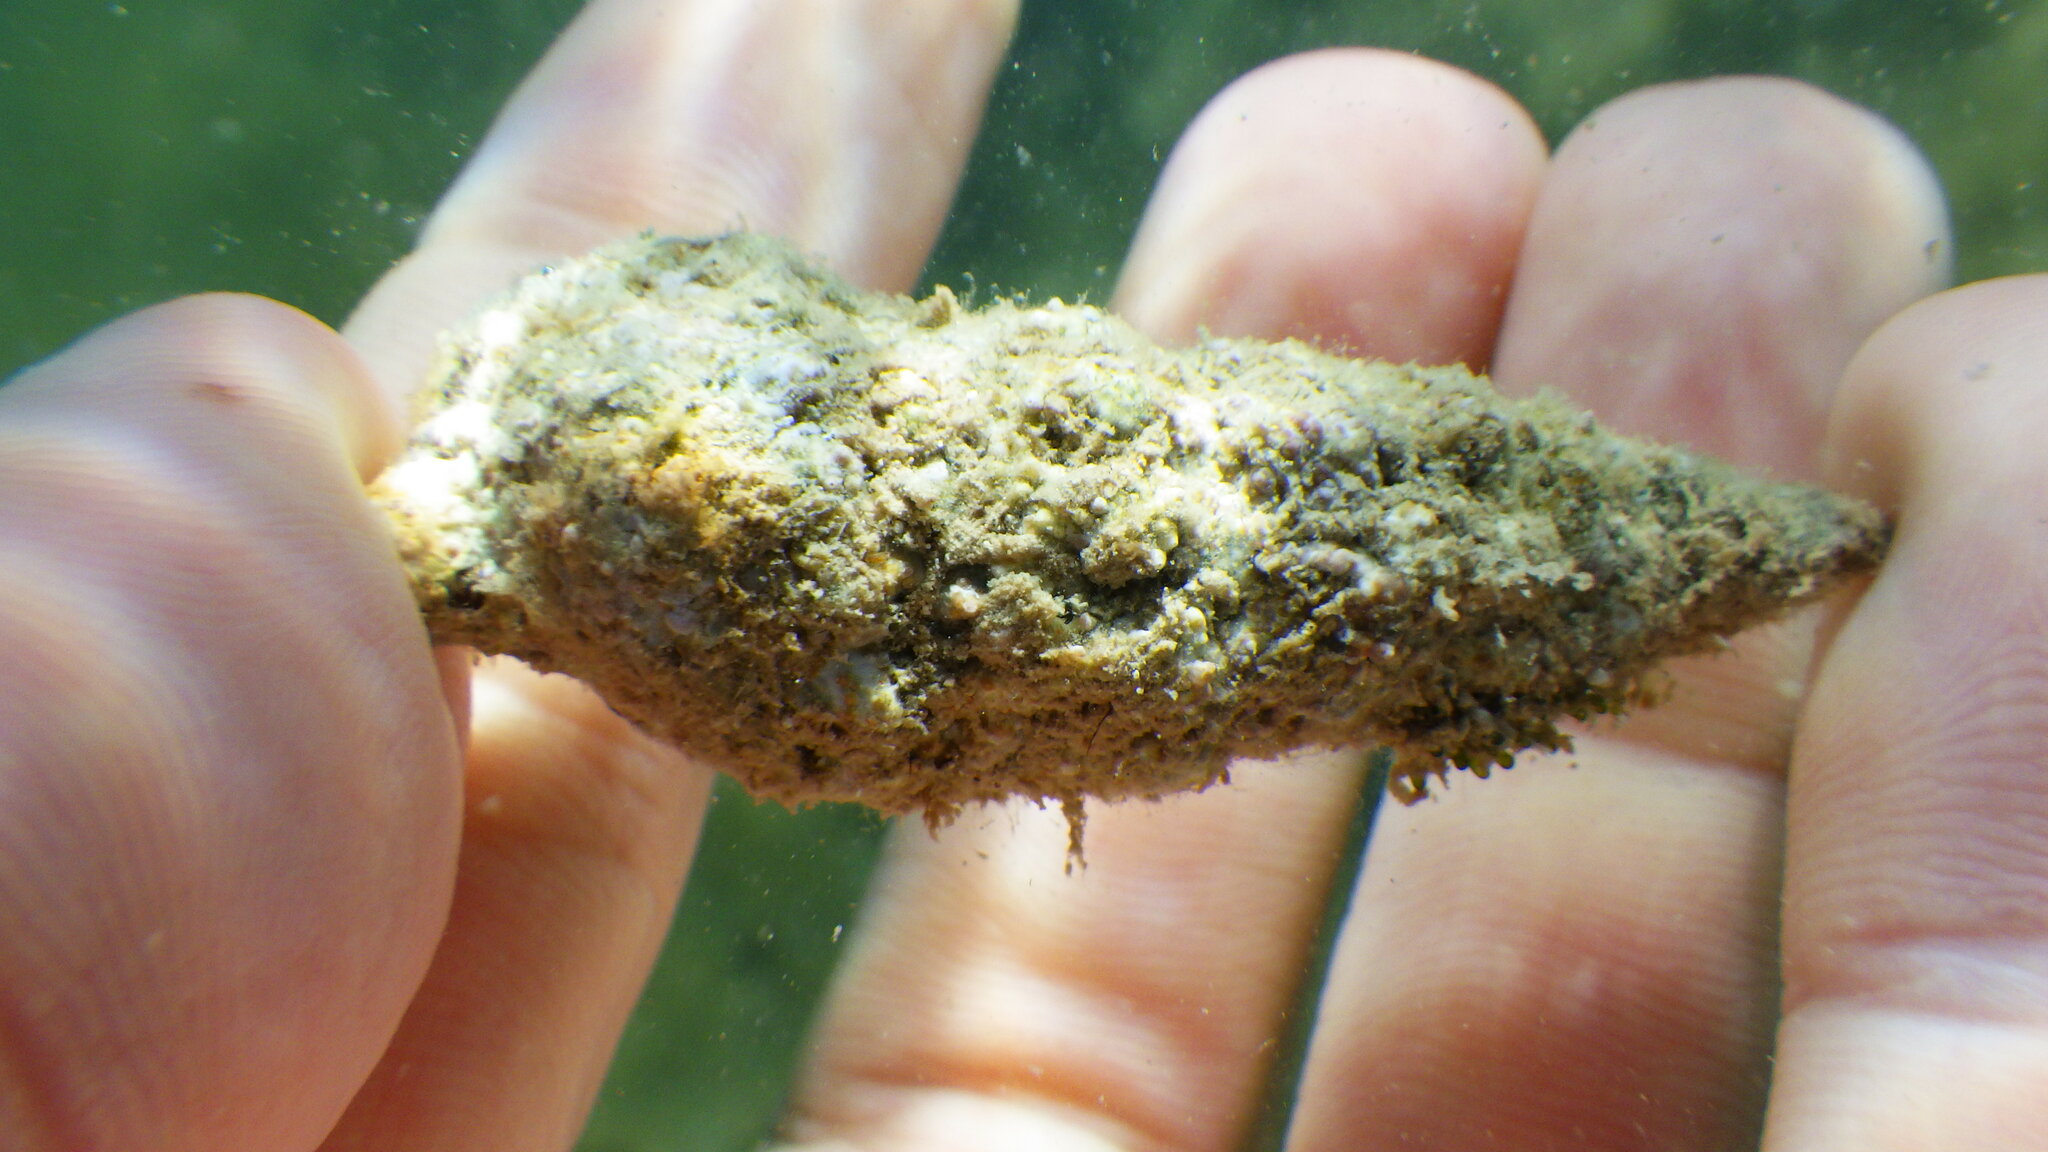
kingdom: Animalia
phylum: Mollusca
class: Gastropoda
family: Cerithiidae
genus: Cerithium
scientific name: Cerithium vulgatum
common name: European cerith
